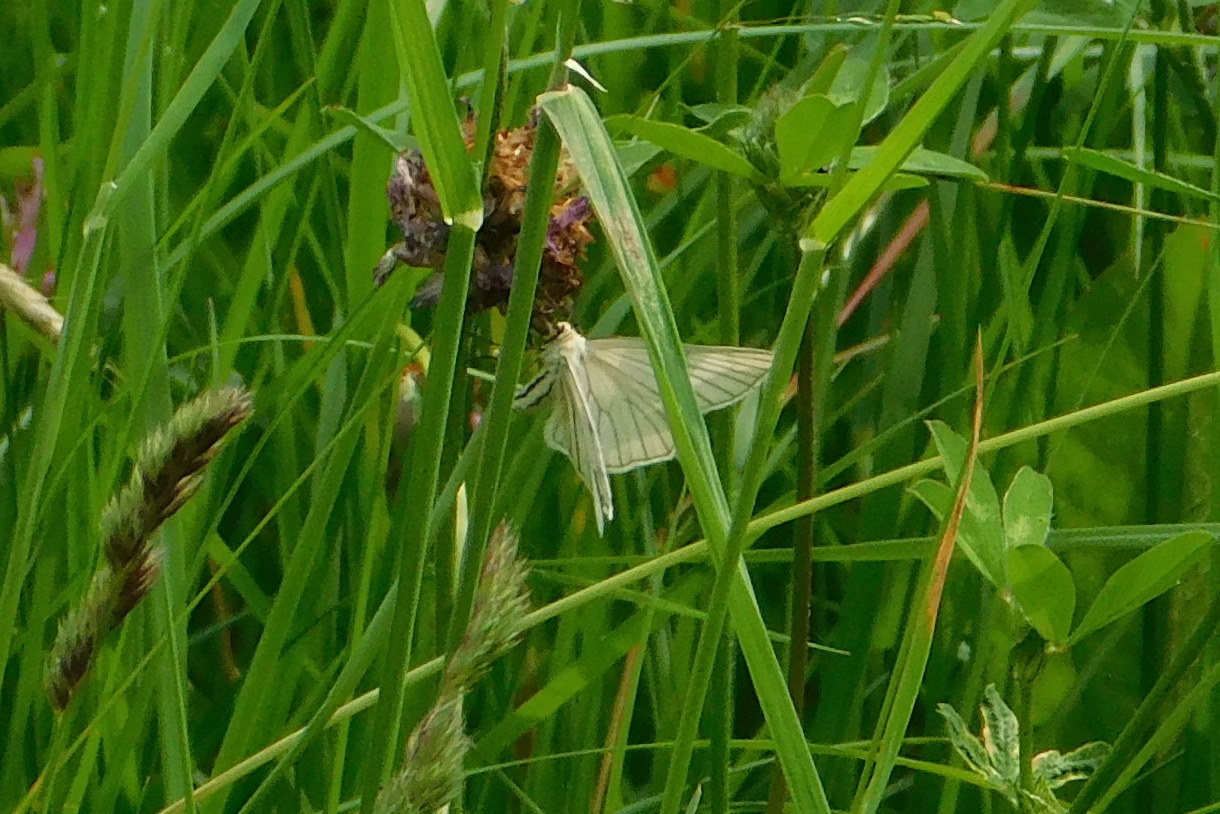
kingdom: Animalia
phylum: Arthropoda
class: Insecta
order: Lepidoptera
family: Geometridae
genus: Siona
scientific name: Siona lineata
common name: Black-veined moth
